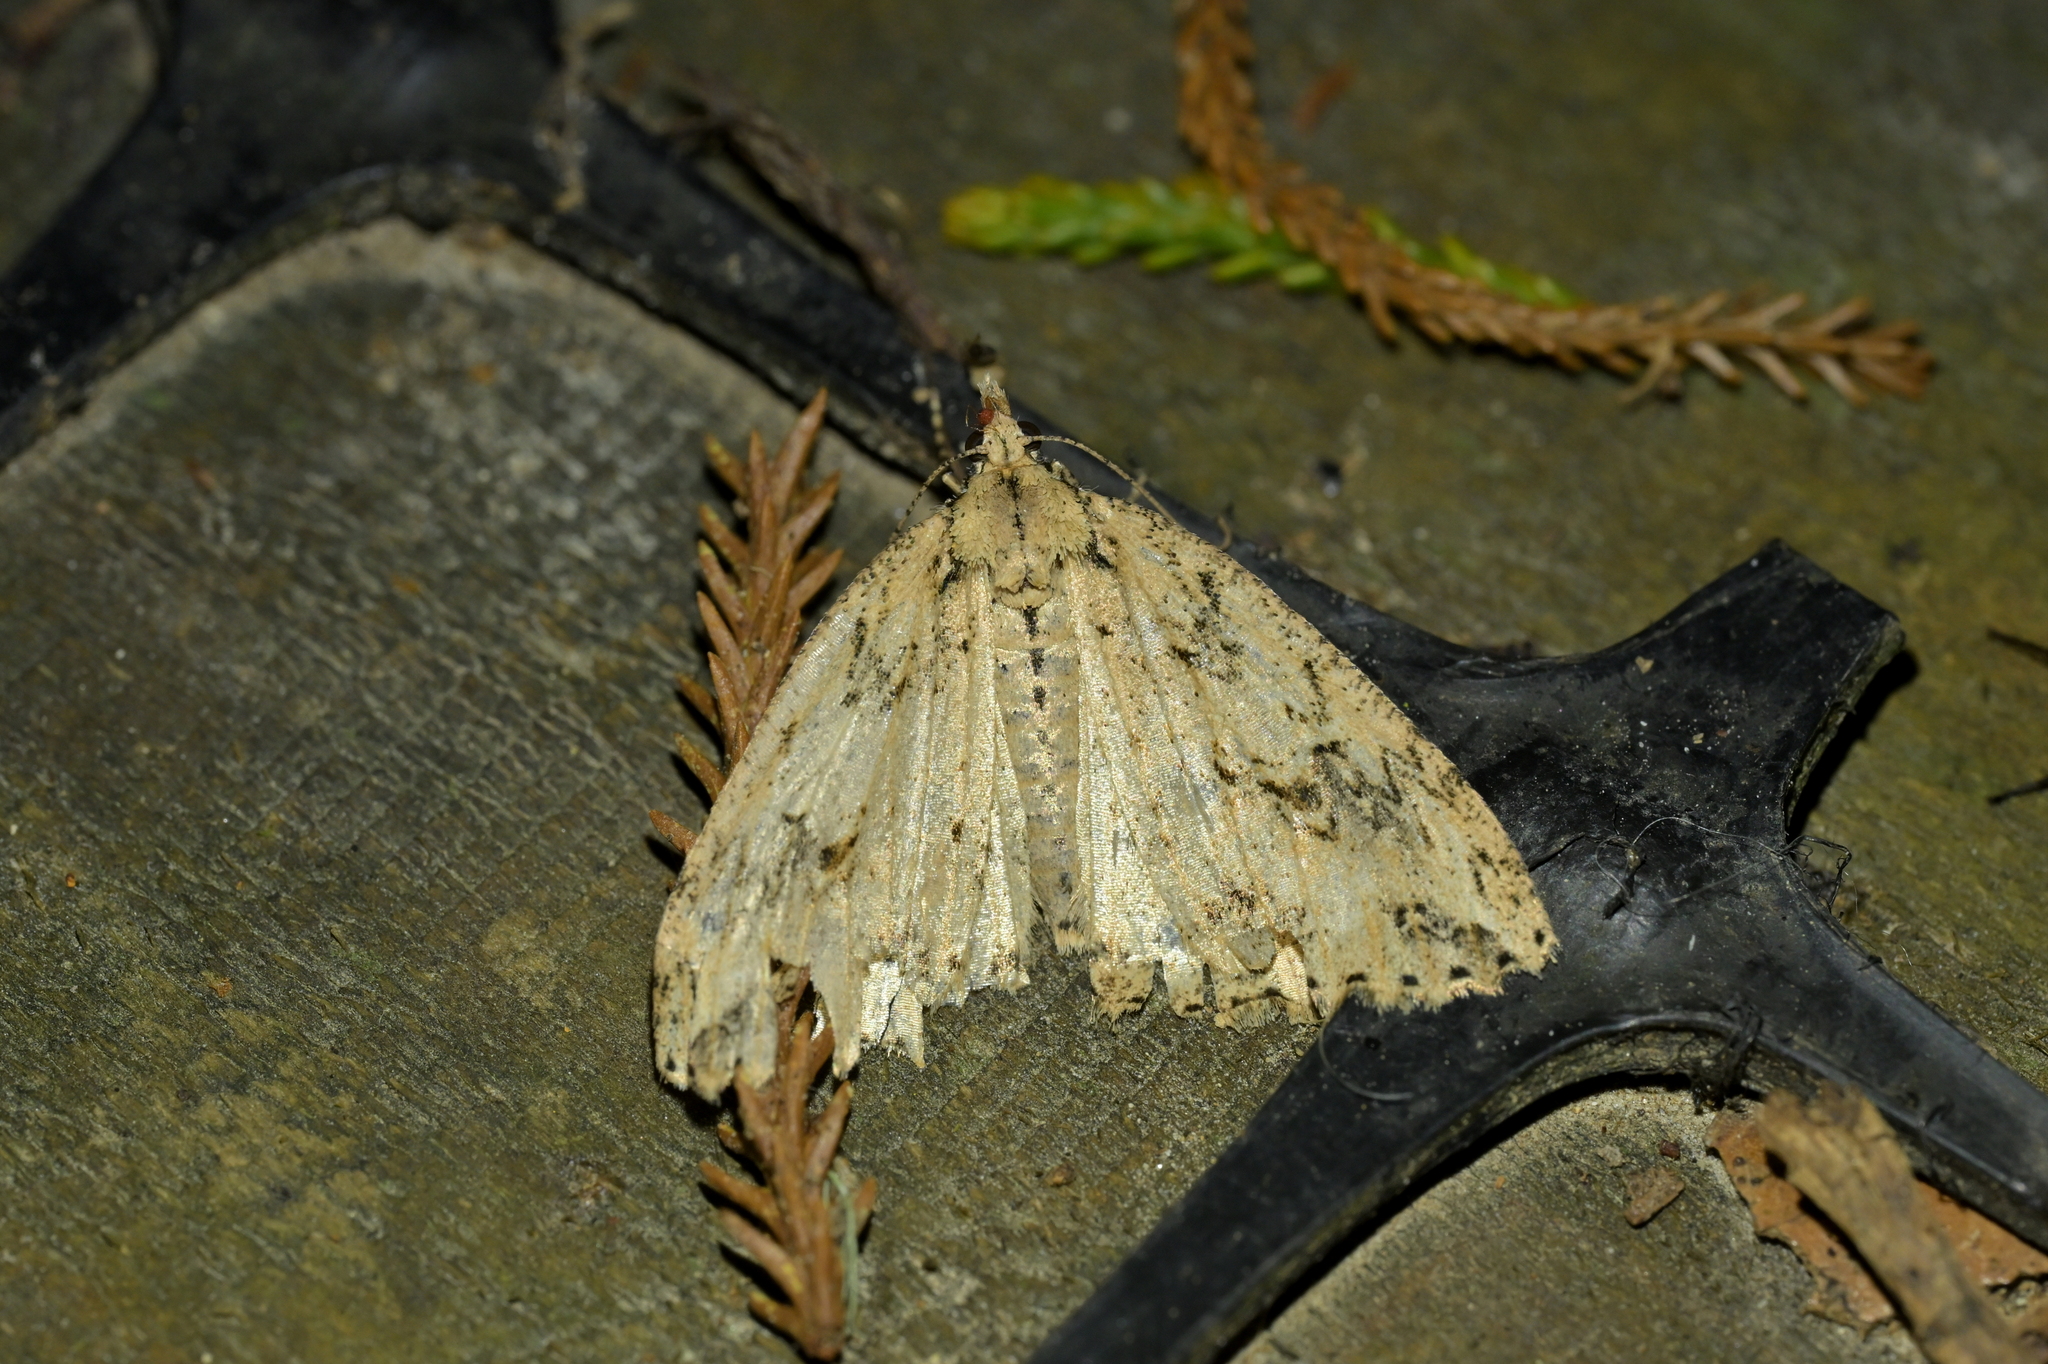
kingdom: Animalia
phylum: Arthropoda
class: Insecta
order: Lepidoptera
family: Geometridae
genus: Pseudocoremia
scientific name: Pseudocoremia rudisata
